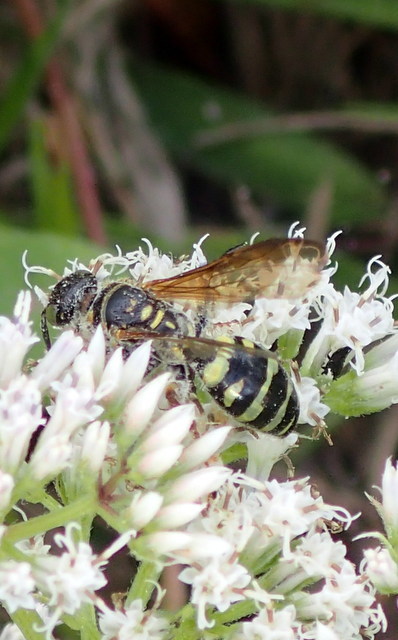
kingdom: Animalia
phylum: Arthropoda
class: Insecta
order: Hymenoptera
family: Scoliidae
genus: Dielis
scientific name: Dielis
